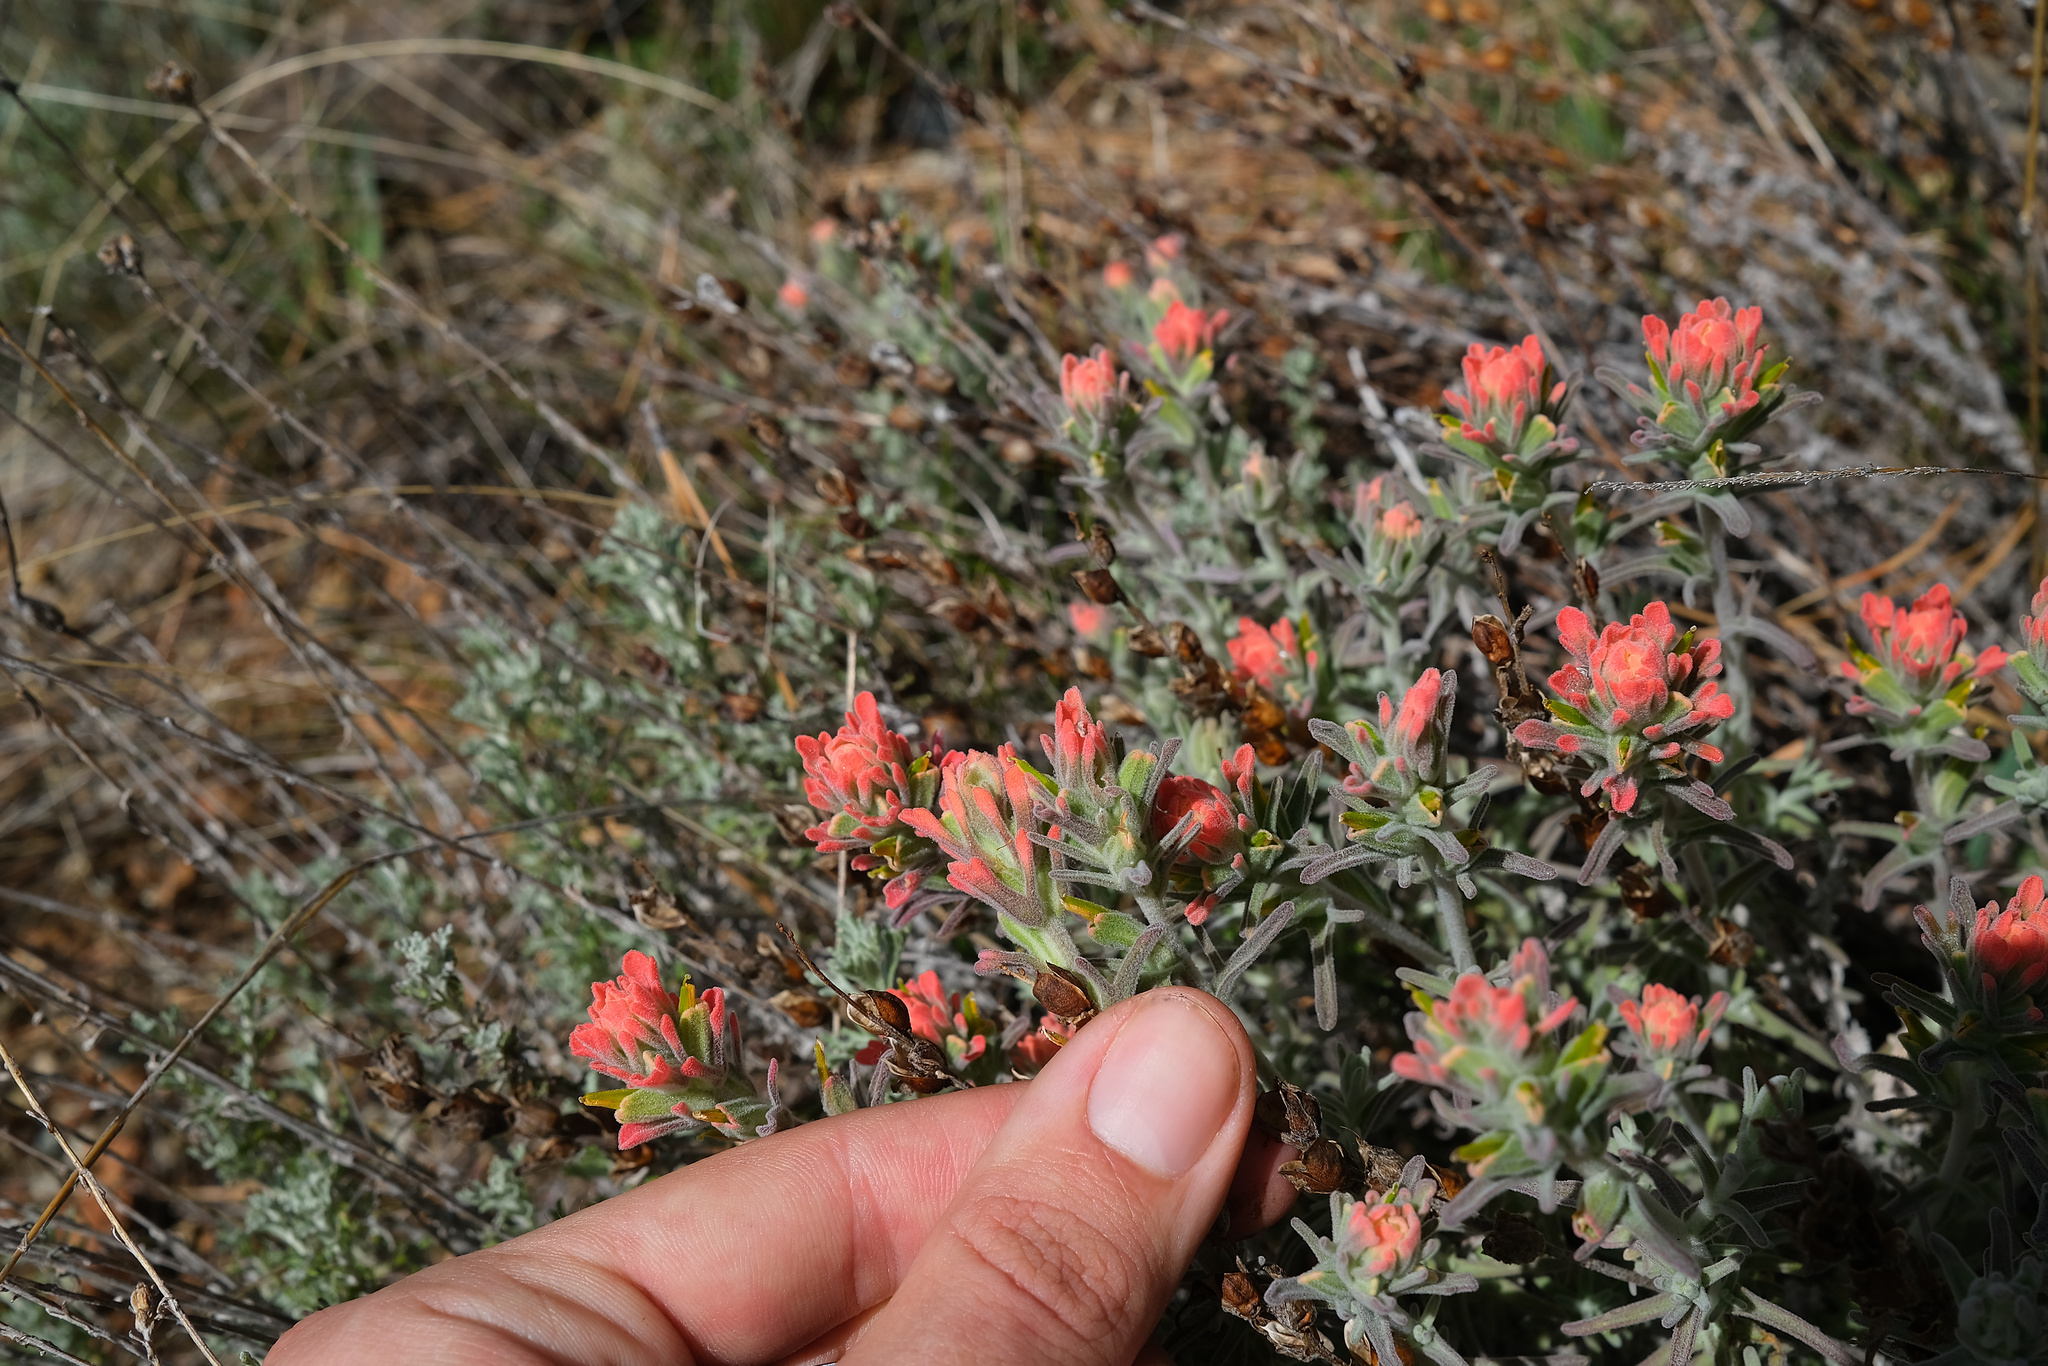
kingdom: Plantae
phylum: Tracheophyta
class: Magnoliopsida
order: Lamiales
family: Orobanchaceae
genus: Castilleja
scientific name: Castilleja foliolosa
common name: Woolly indian paintbrush
